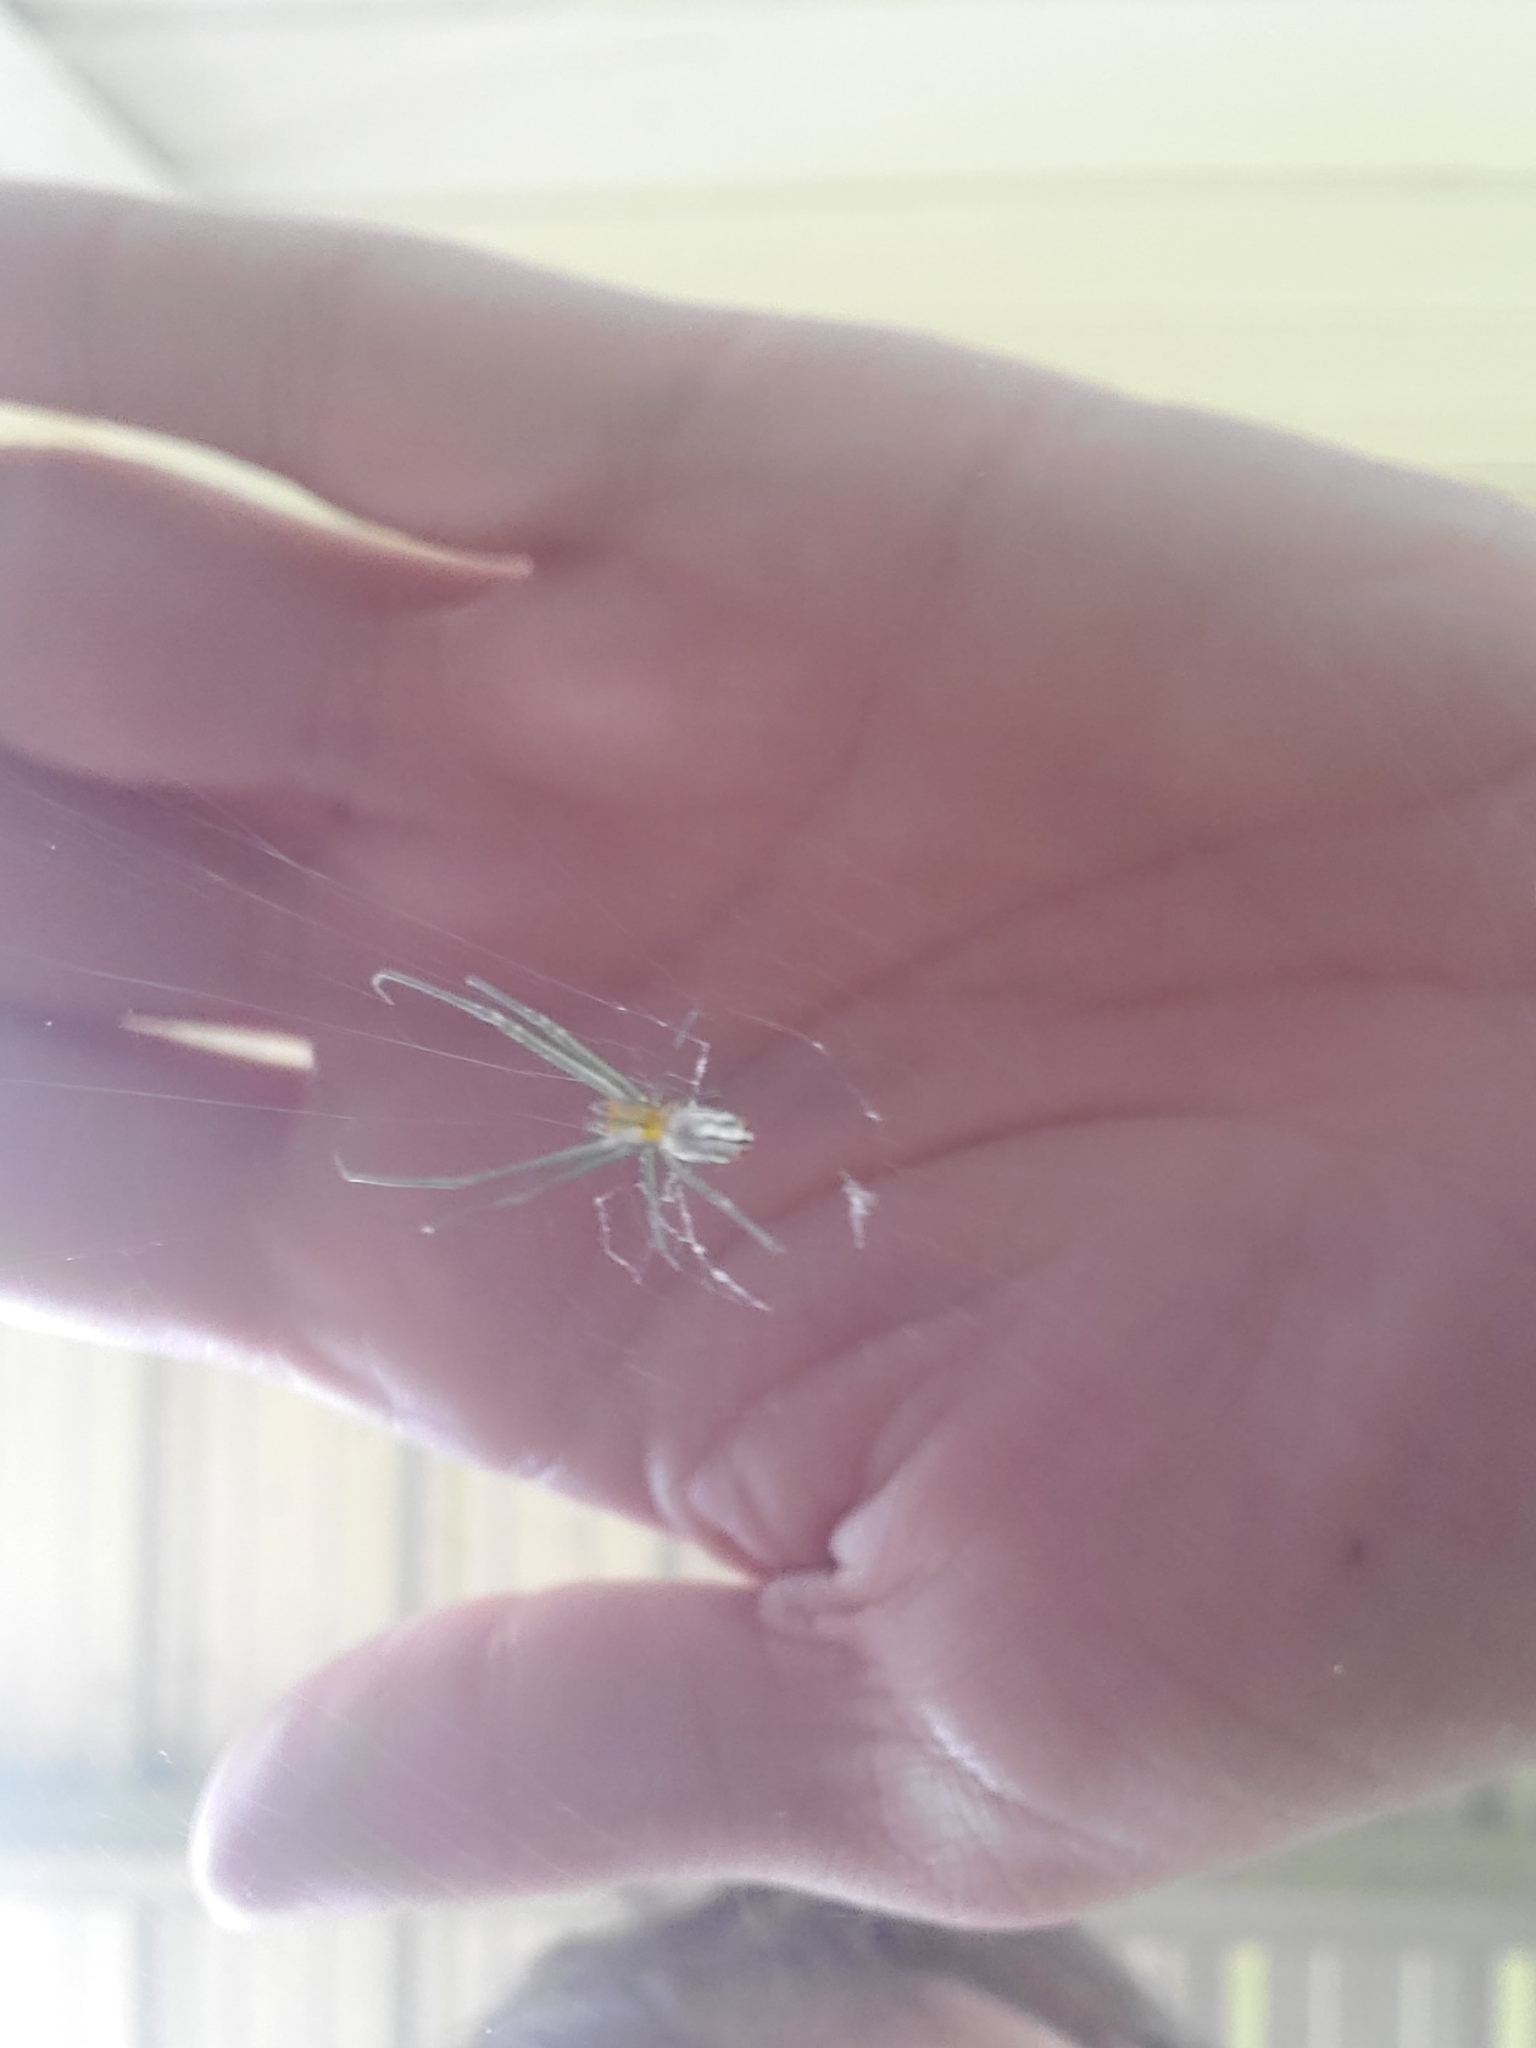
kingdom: Animalia
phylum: Arthropoda
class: Arachnida
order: Araneae
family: Tetragnathidae
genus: Leucauge
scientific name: Leucauge argyrobapta
